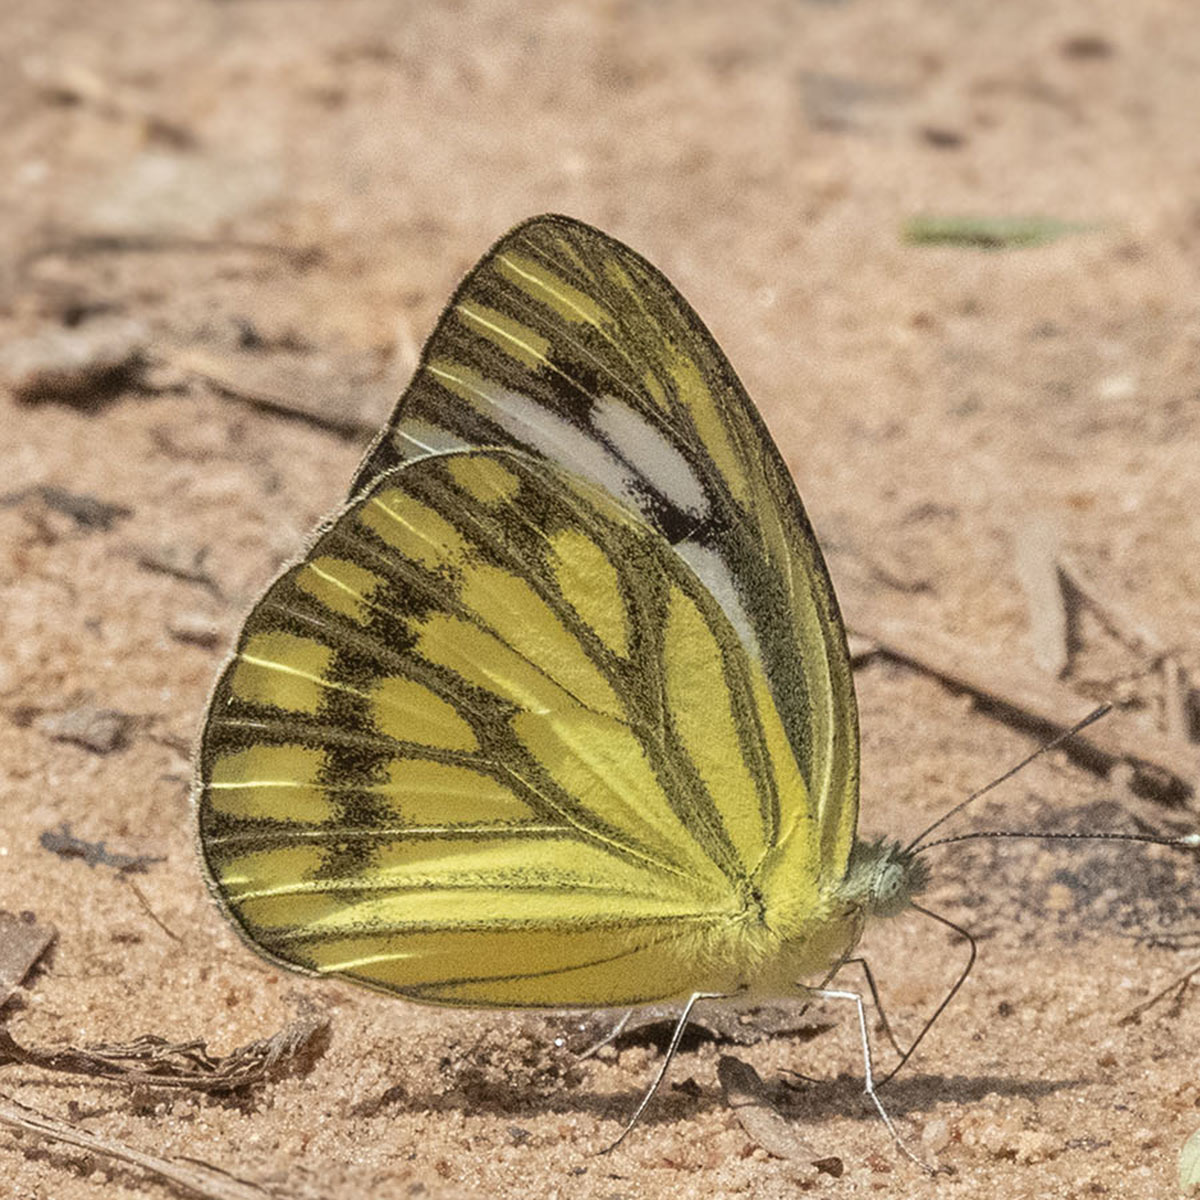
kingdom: Animalia
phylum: Arthropoda
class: Insecta
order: Lepidoptera
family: Pieridae
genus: Cepora
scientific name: Cepora nerissa
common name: Common gull
